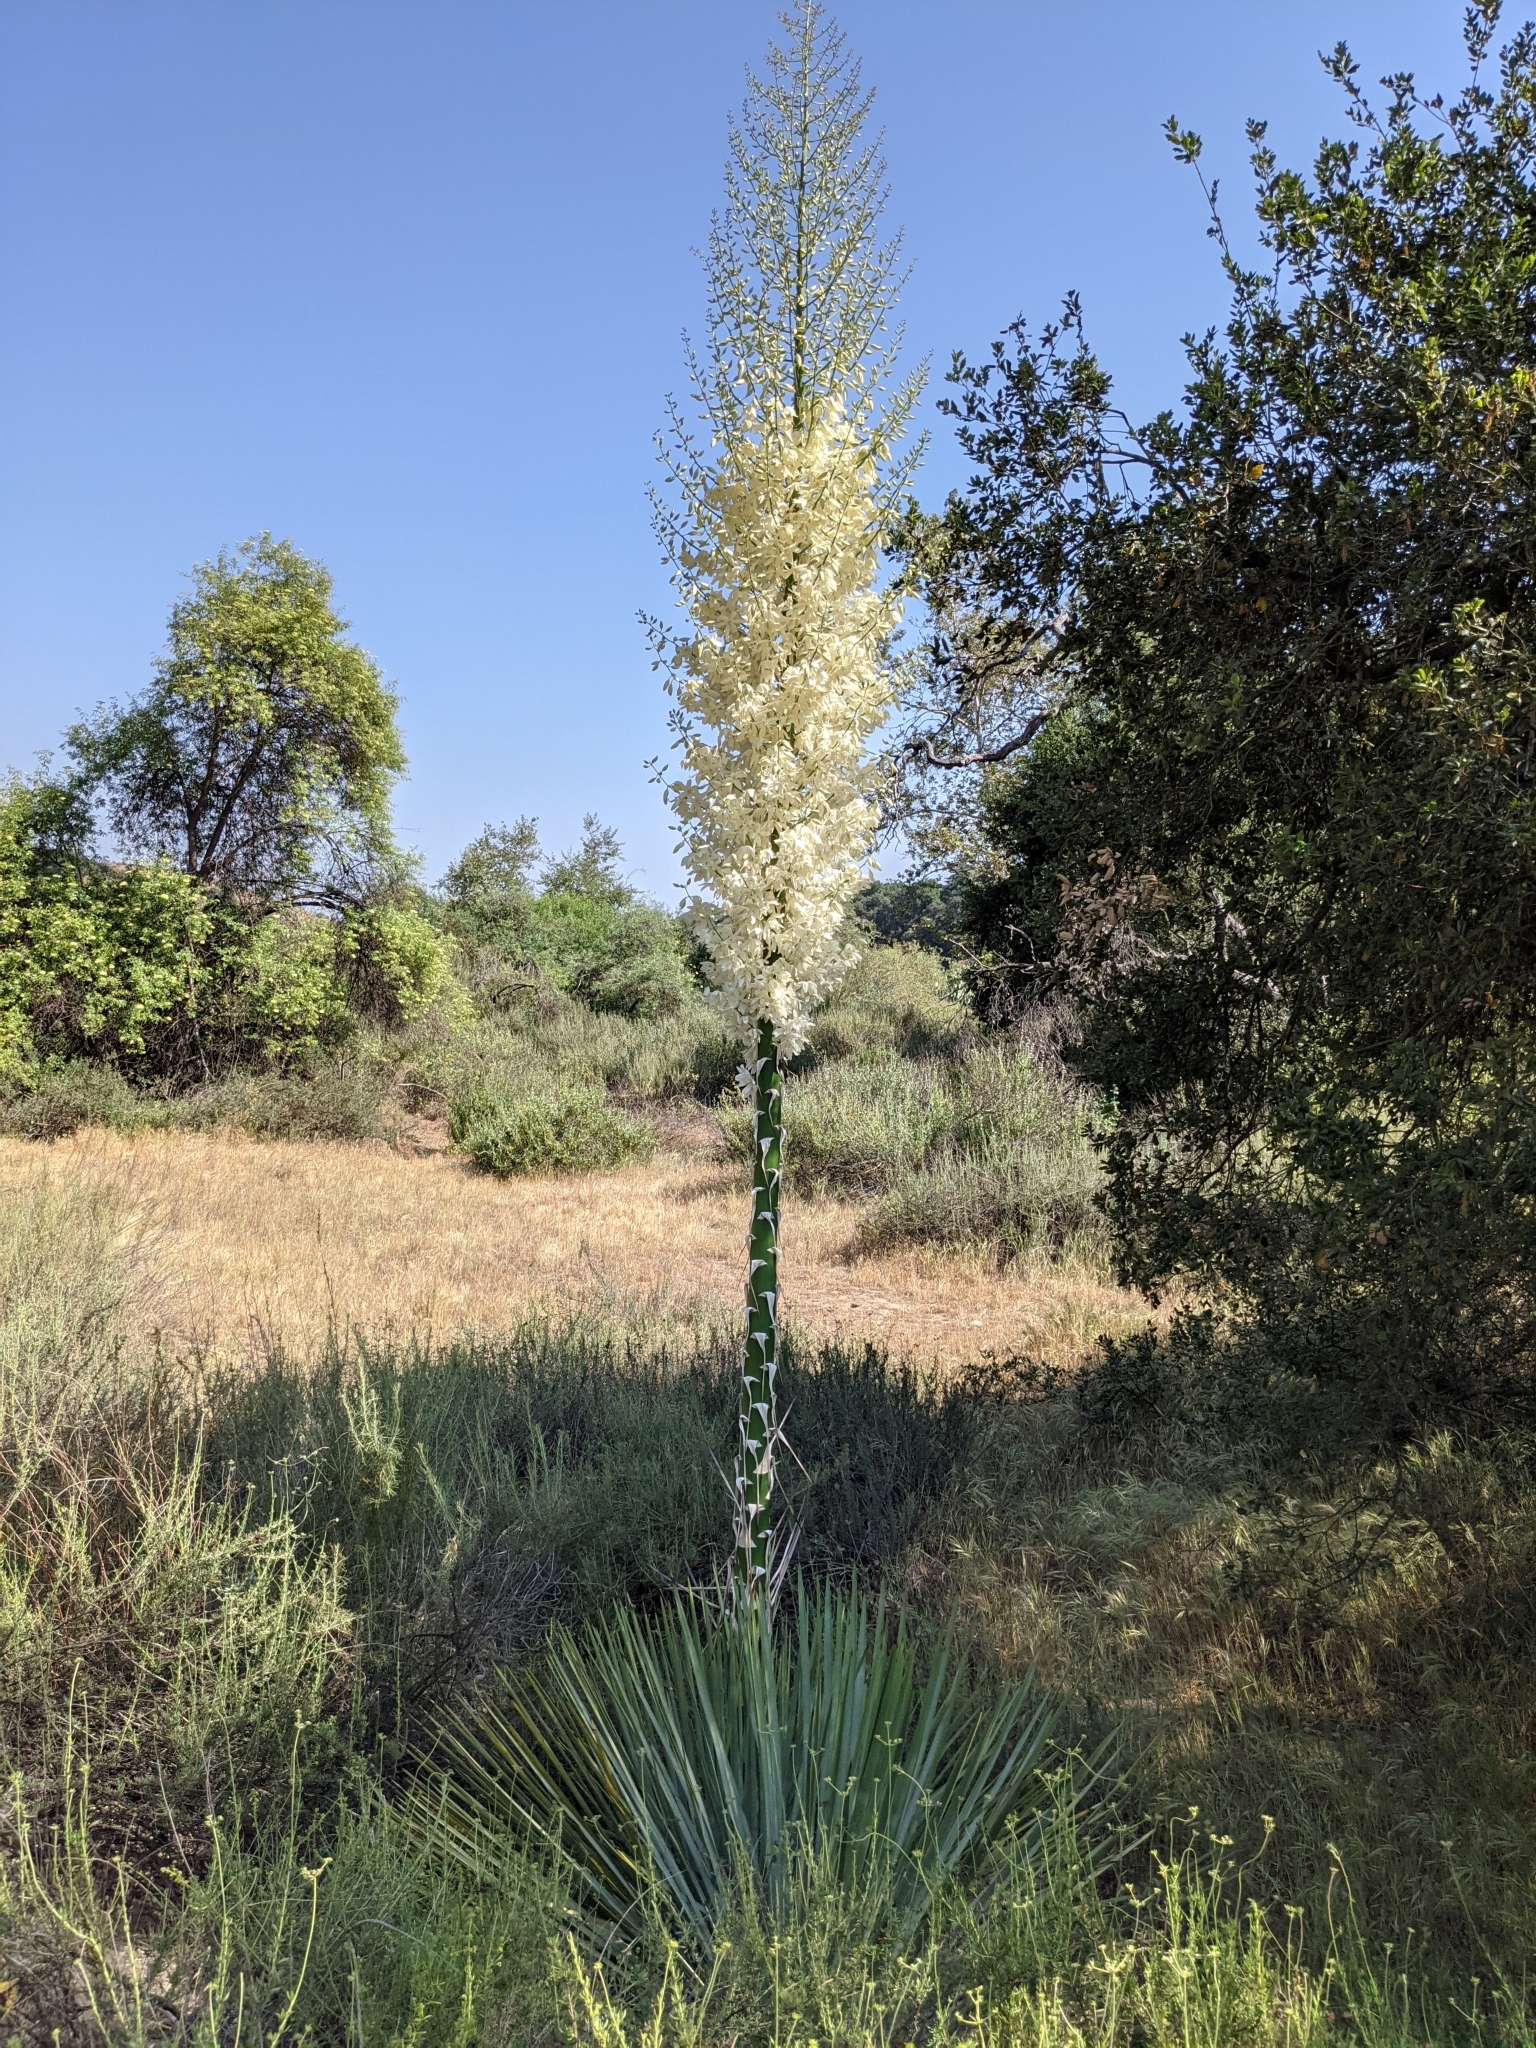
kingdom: Plantae
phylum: Tracheophyta
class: Liliopsida
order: Asparagales
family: Asparagaceae
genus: Hesperoyucca
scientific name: Hesperoyucca whipplei
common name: Our lord's-candle
